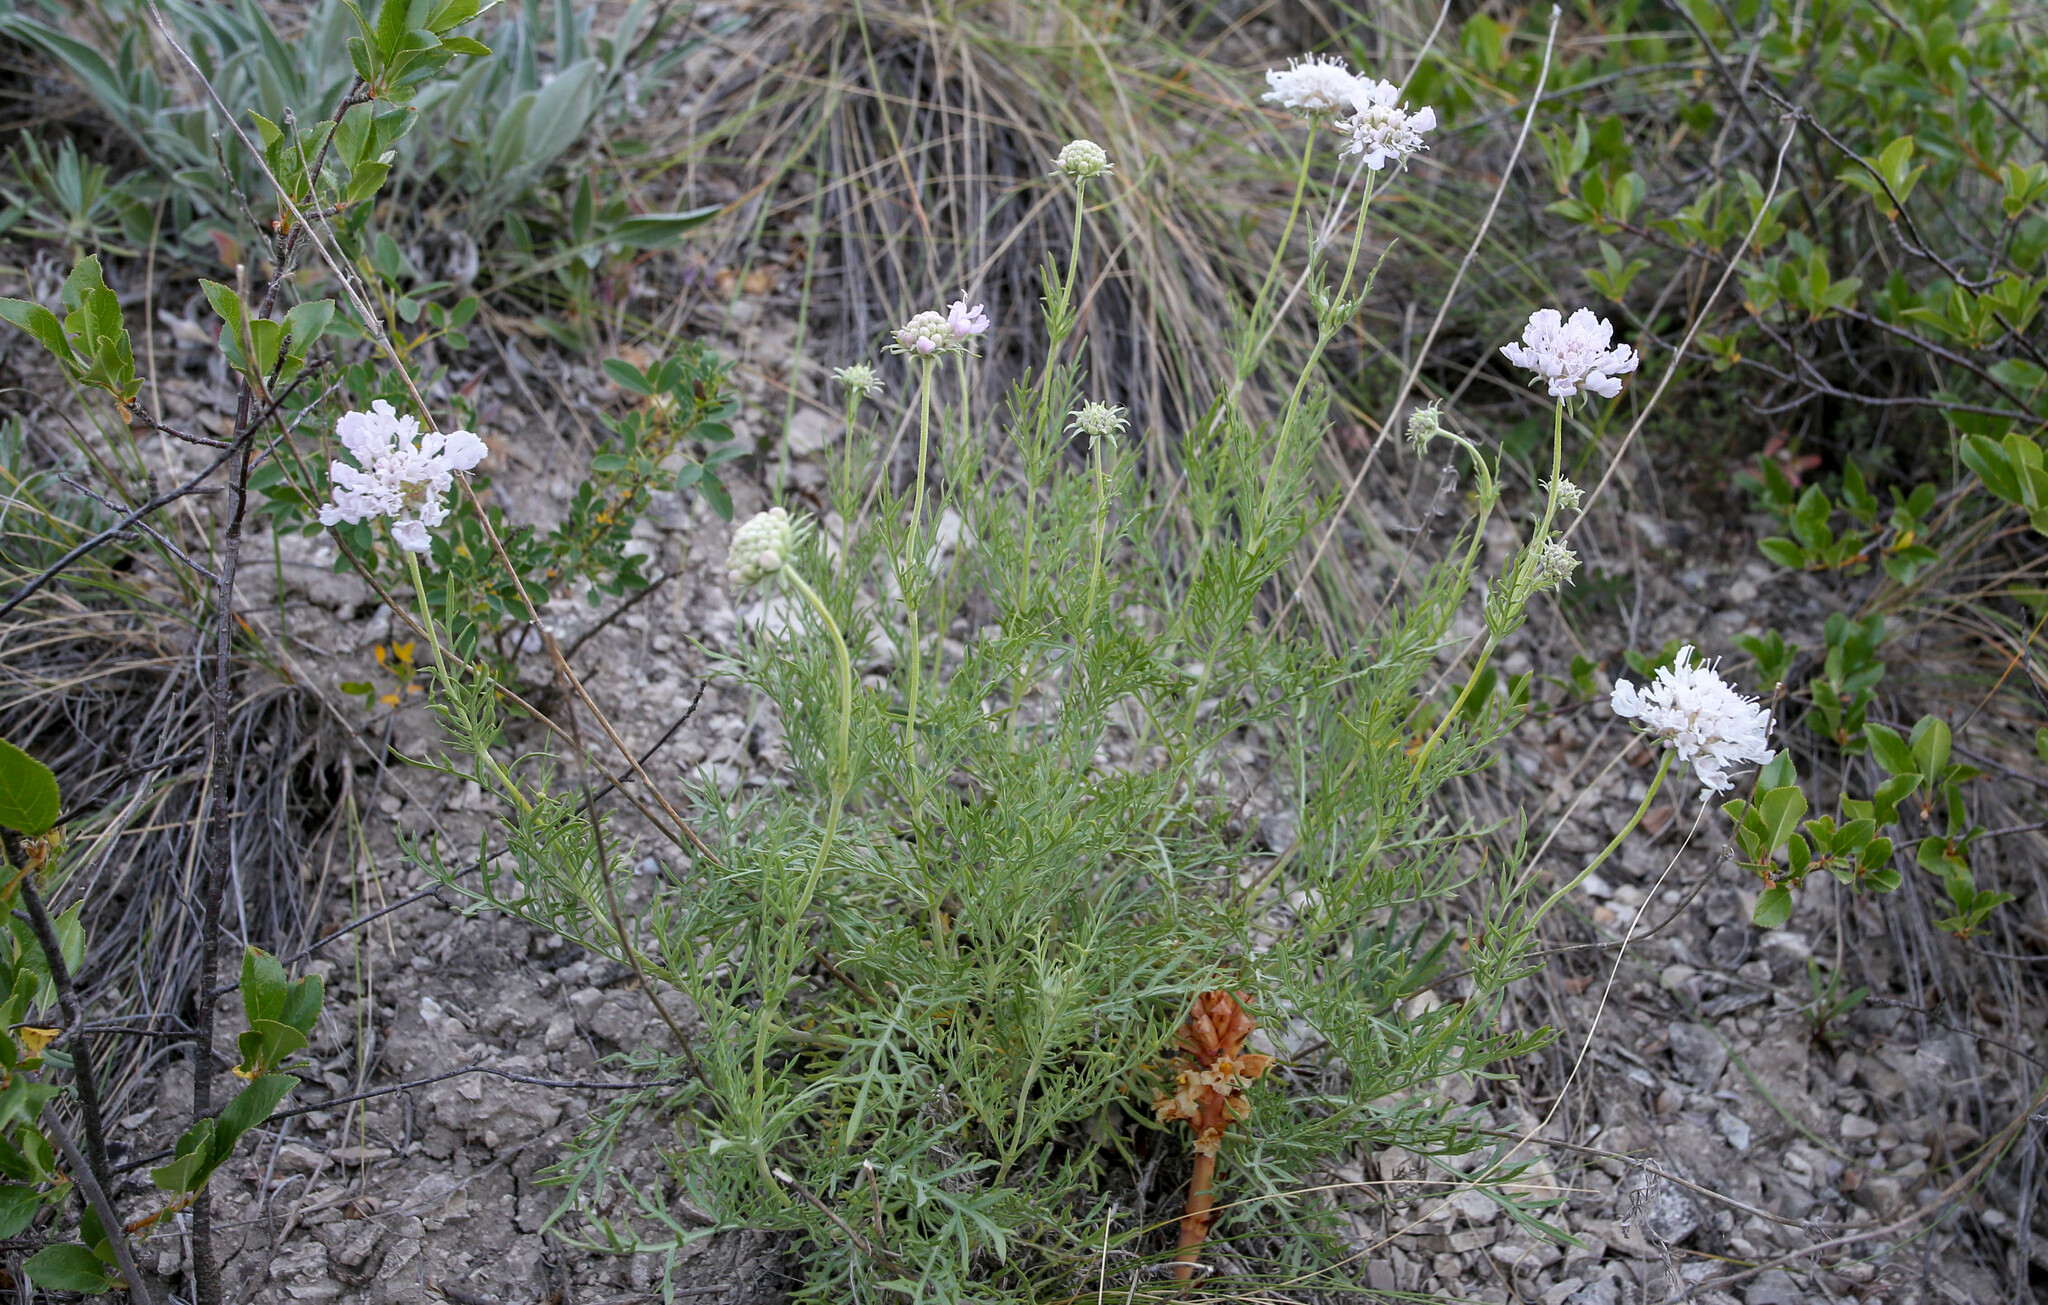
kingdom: Plantae
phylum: Tracheophyta
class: Magnoliopsida
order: Dipsacales
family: Caprifoliaceae
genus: Lomelosia
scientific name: Lomelosia isetensis
